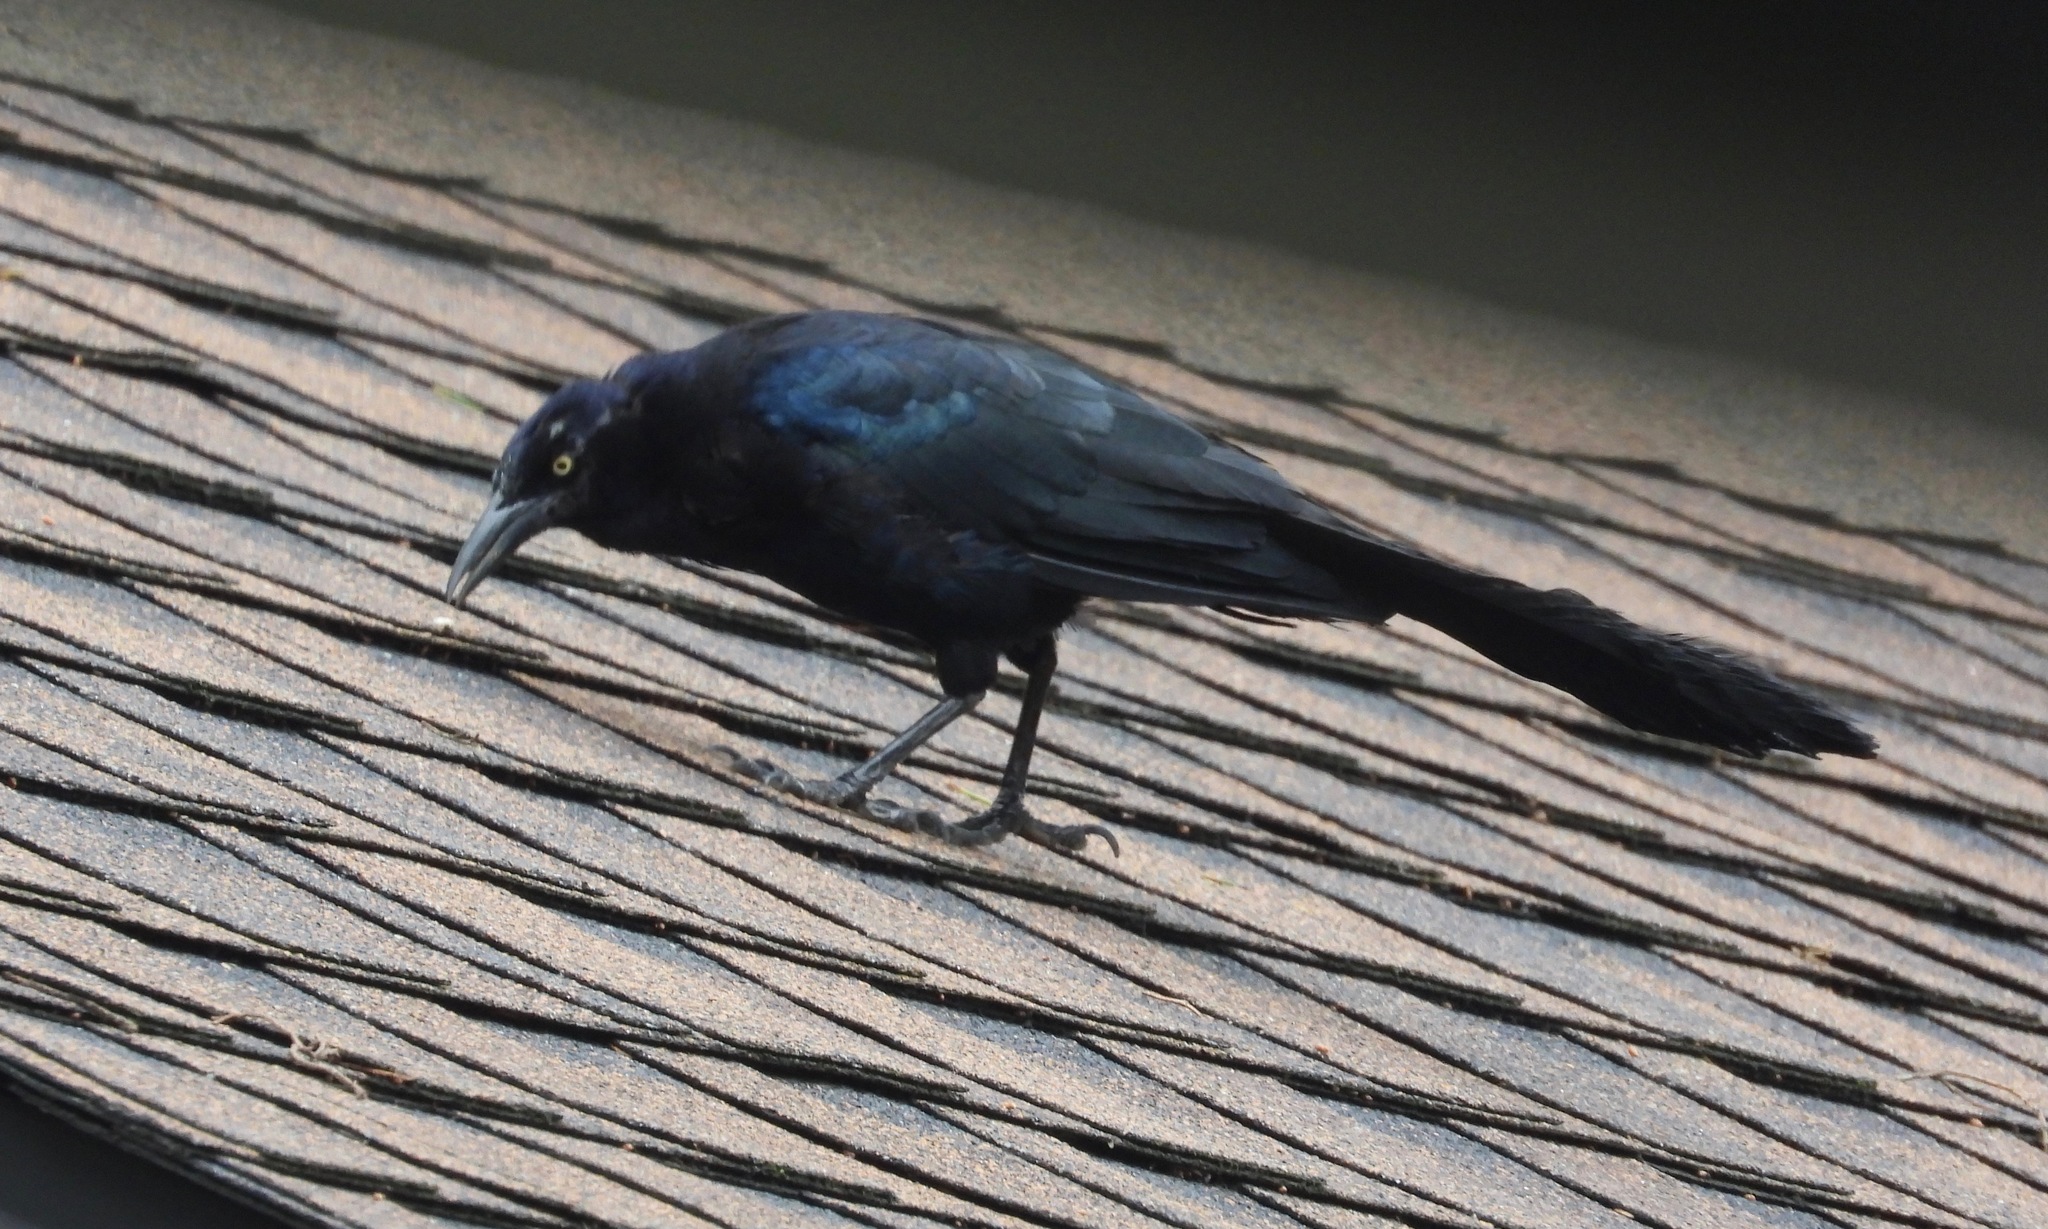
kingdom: Animalia
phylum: Chordata
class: Aves
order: Passeriformes
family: Icteridae
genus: Quiscalus
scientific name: Quiscalus mexicanus
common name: Great-tailed grackle
